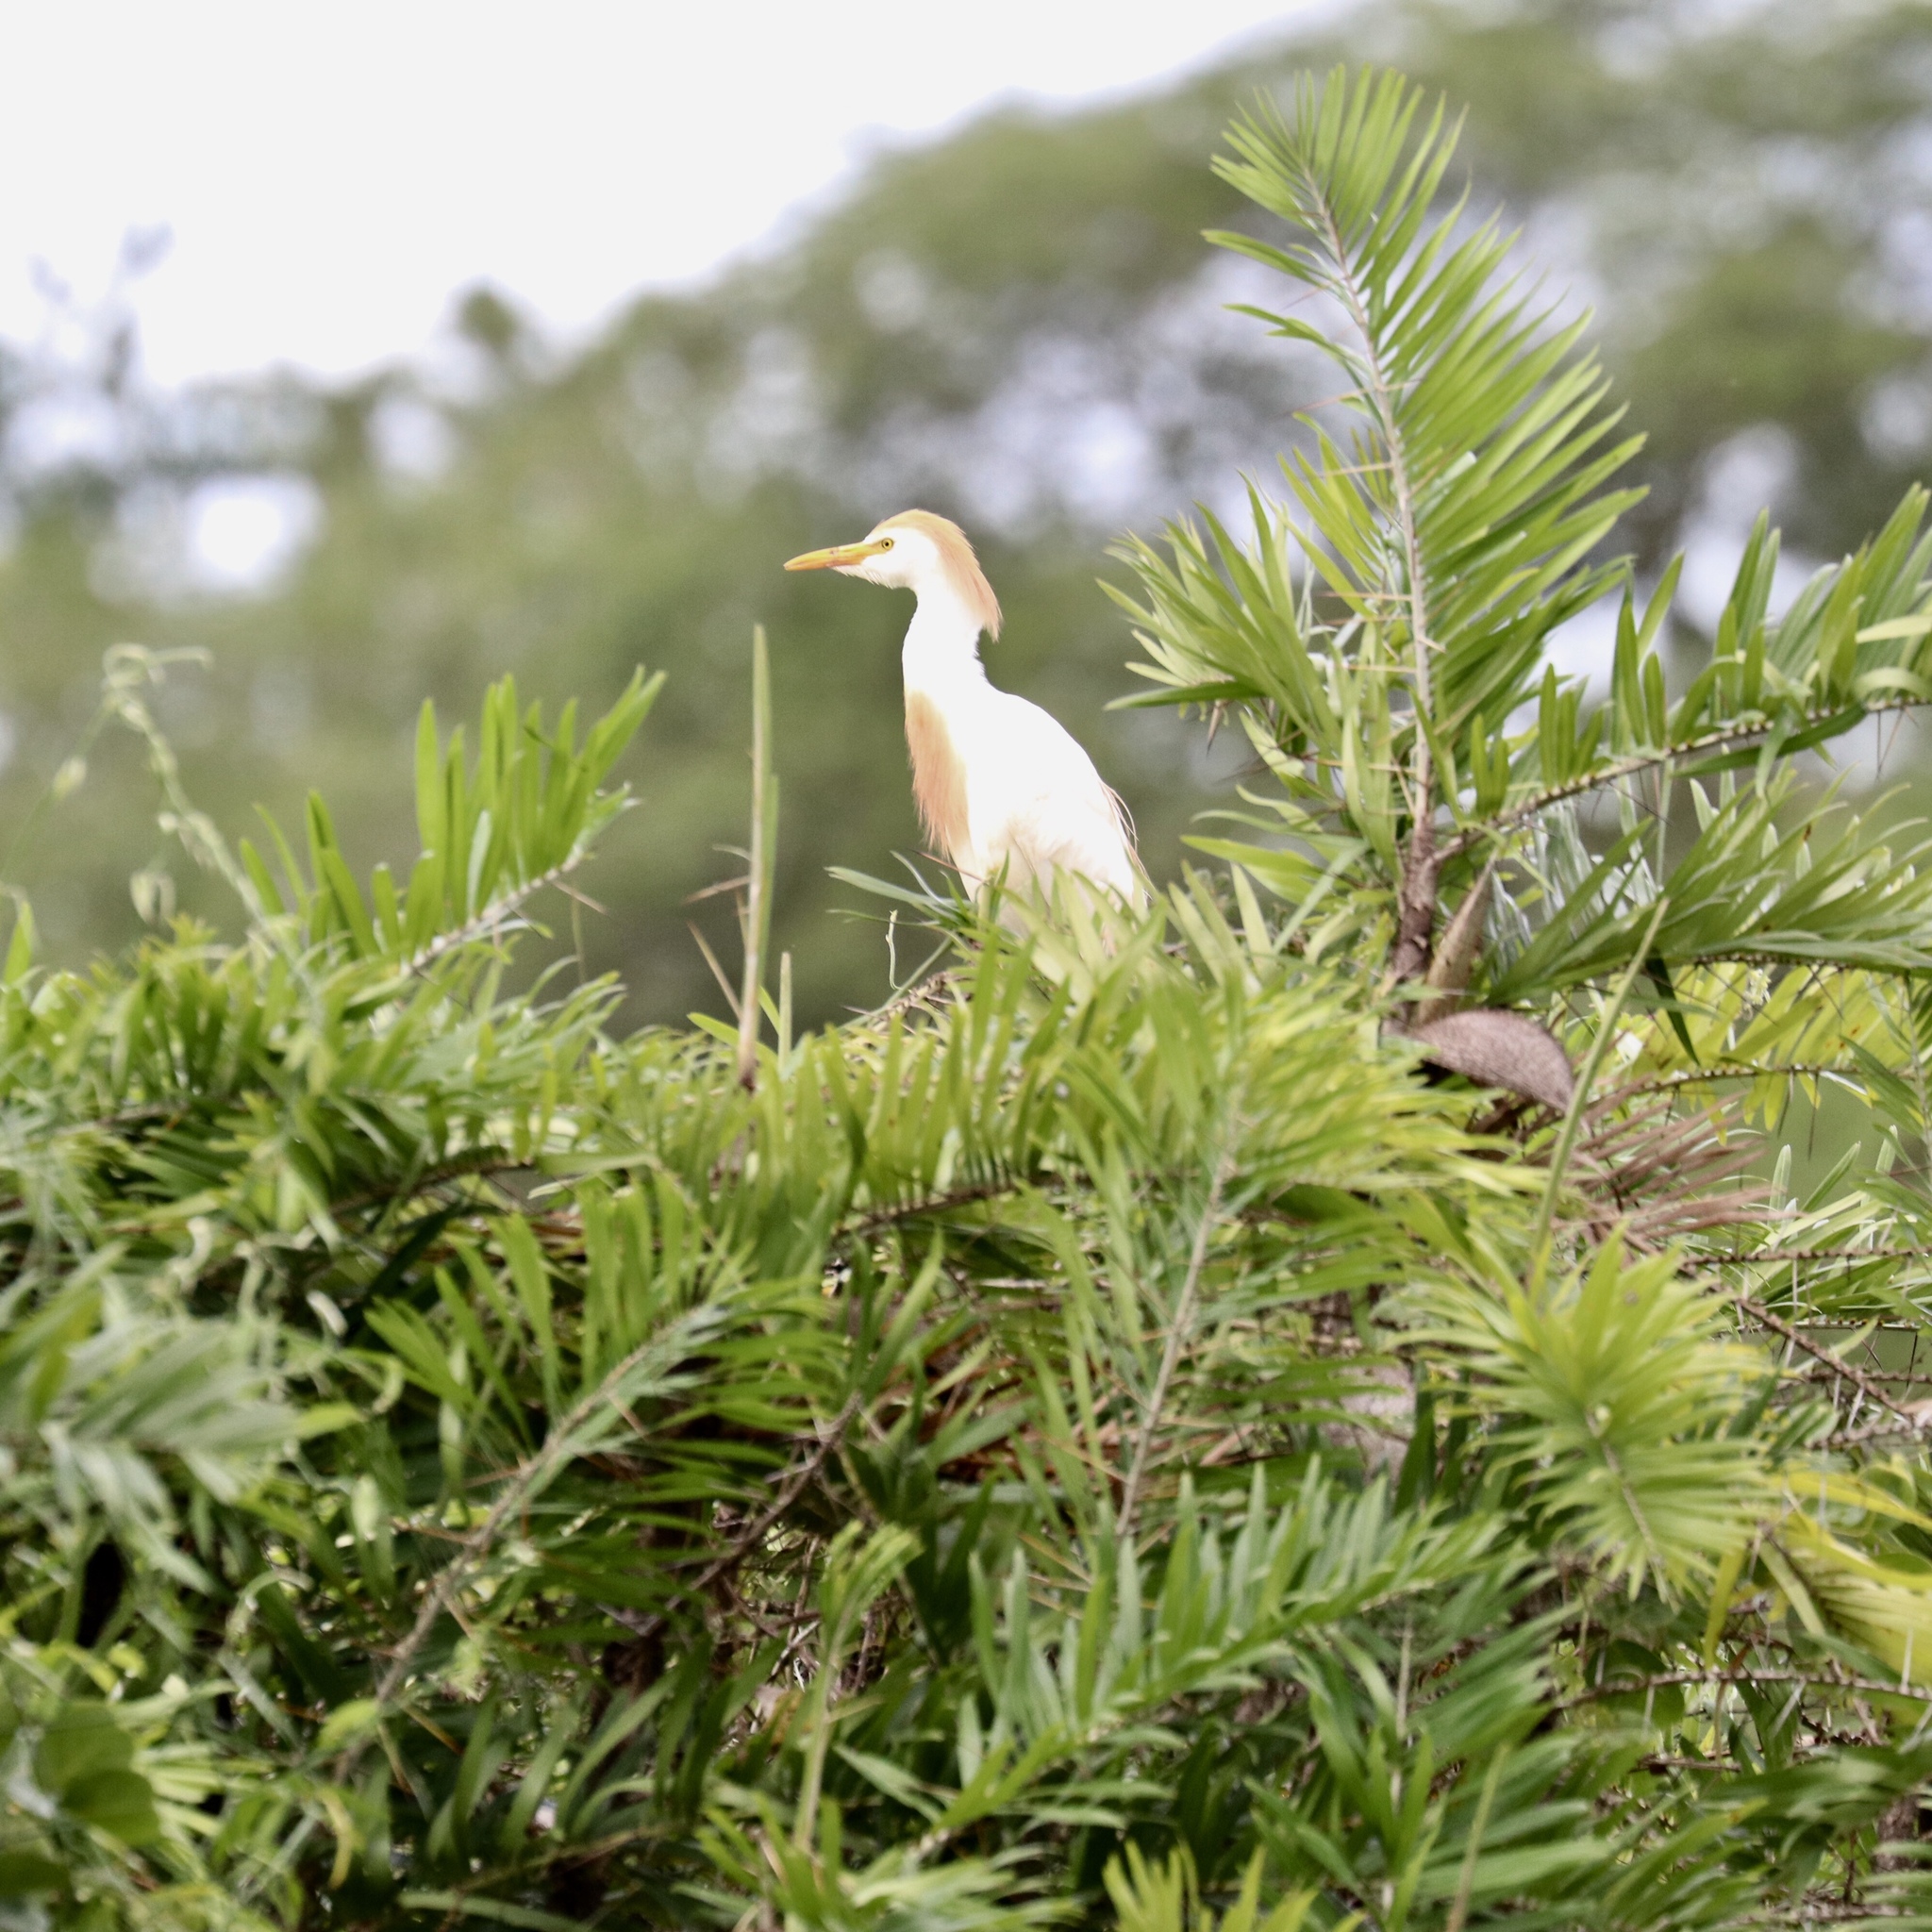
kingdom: Animalia
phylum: Chordata
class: Aves
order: Pelecaniformes
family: Ardeidae
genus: Bubulcus
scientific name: Bubulcus ibis
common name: Cattle egret
